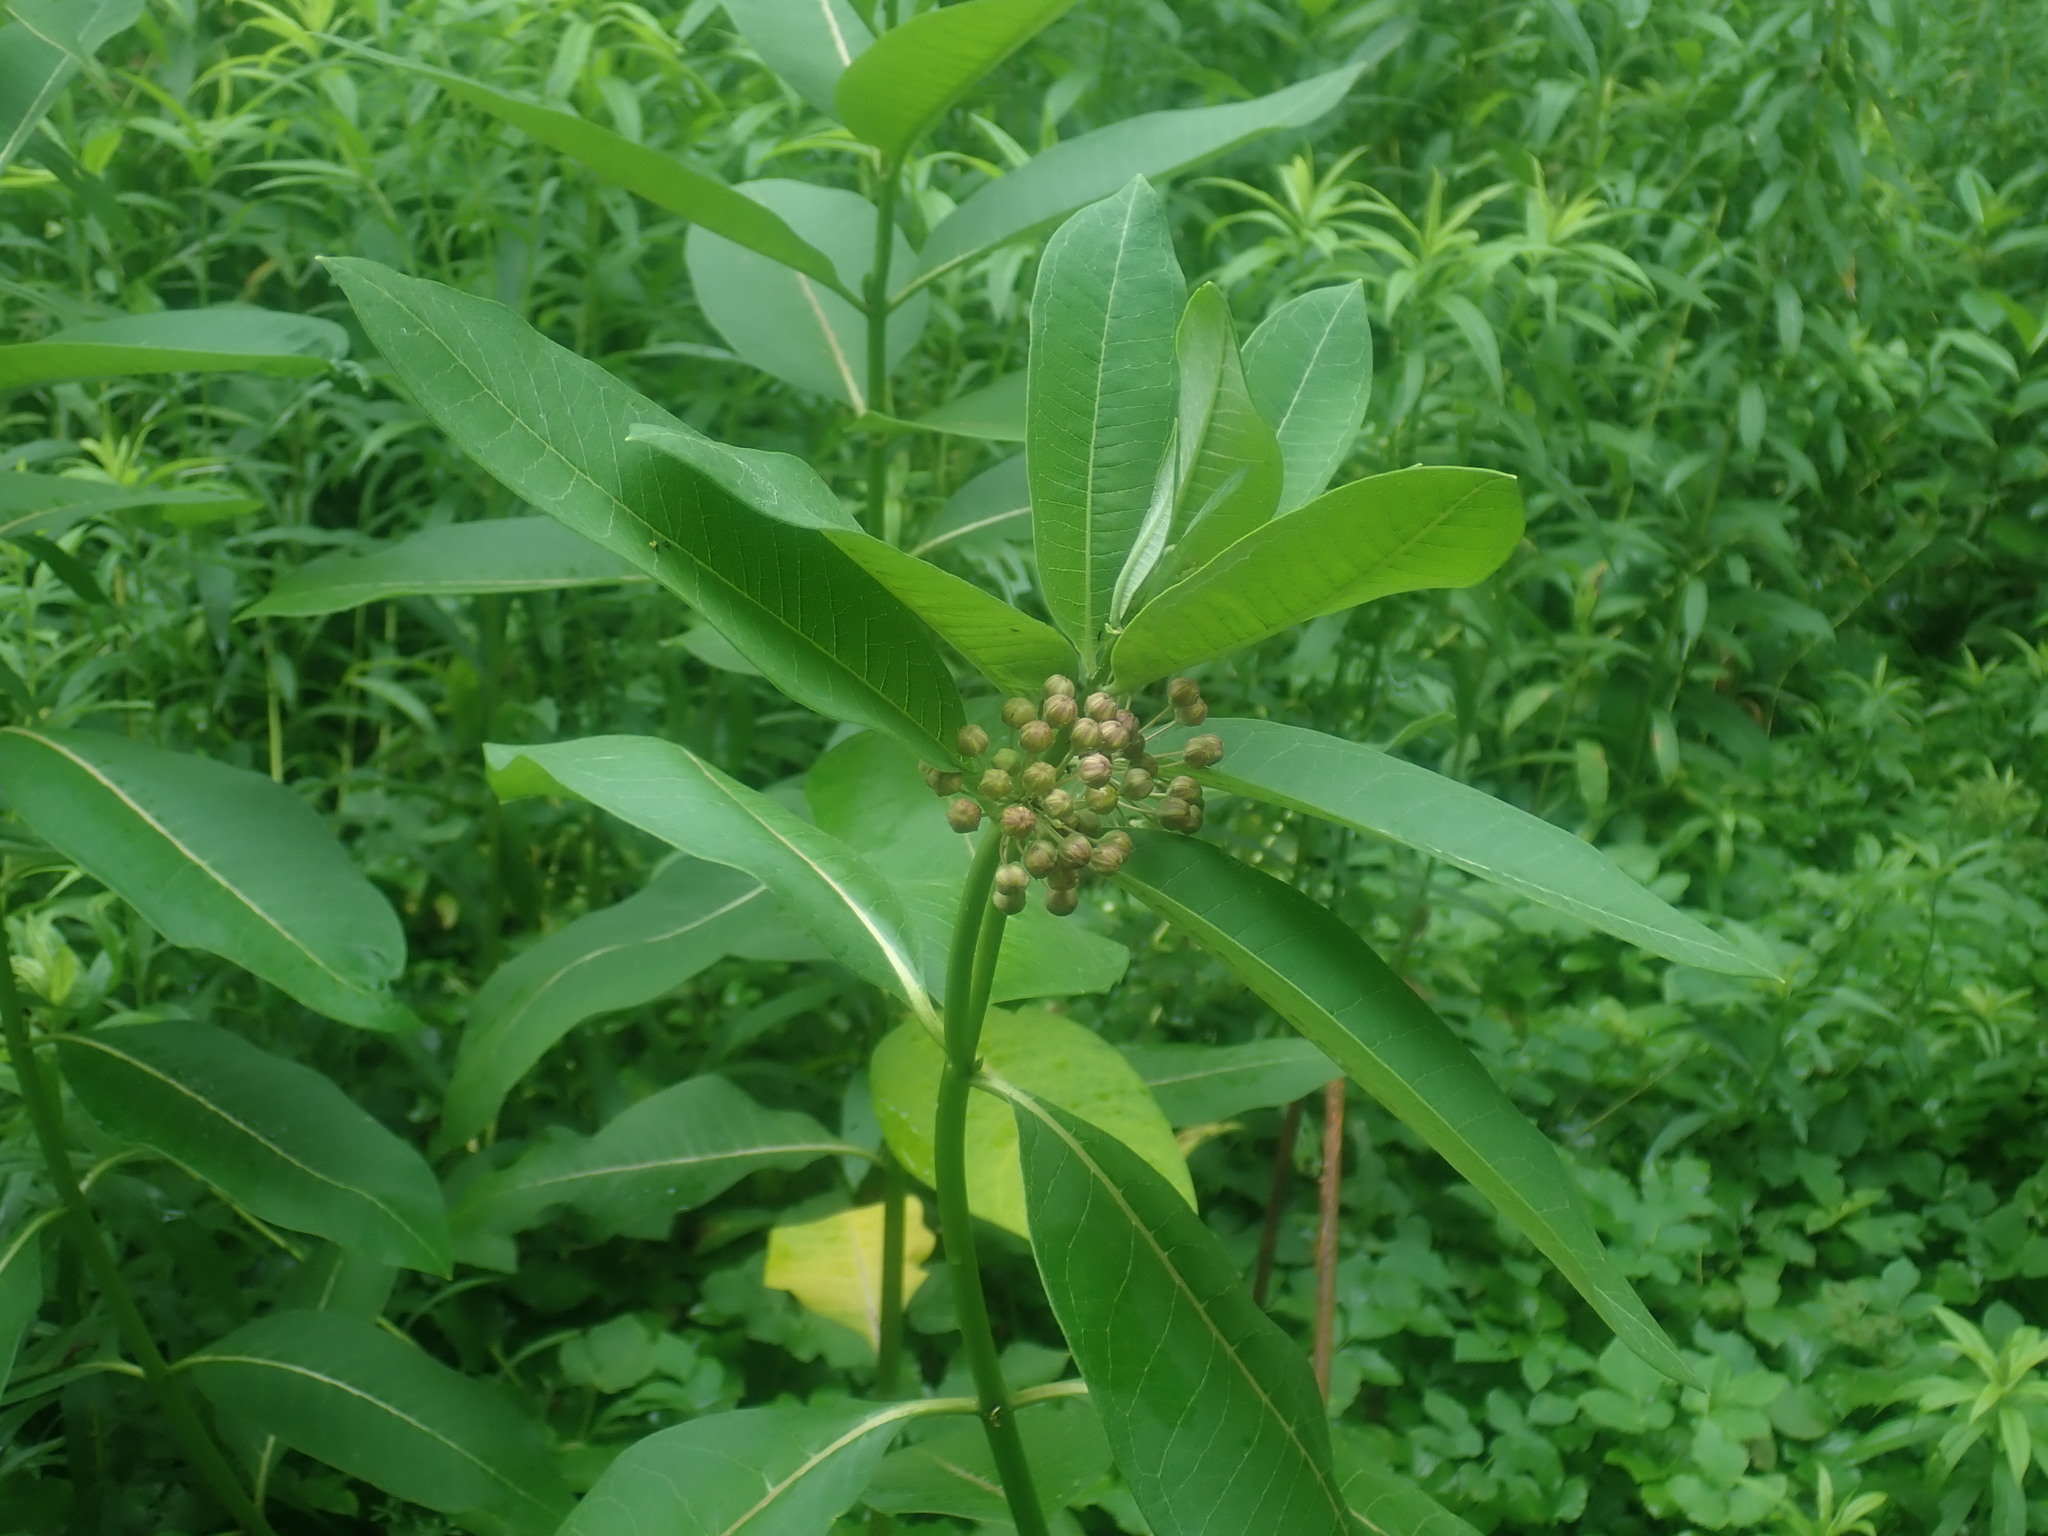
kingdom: Plantae
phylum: Tracheophyta
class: Magnoliopsida
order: Gentianales
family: Apocynaceae
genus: Asclepias
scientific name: Asclepias syriaca
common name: Common milkweed
